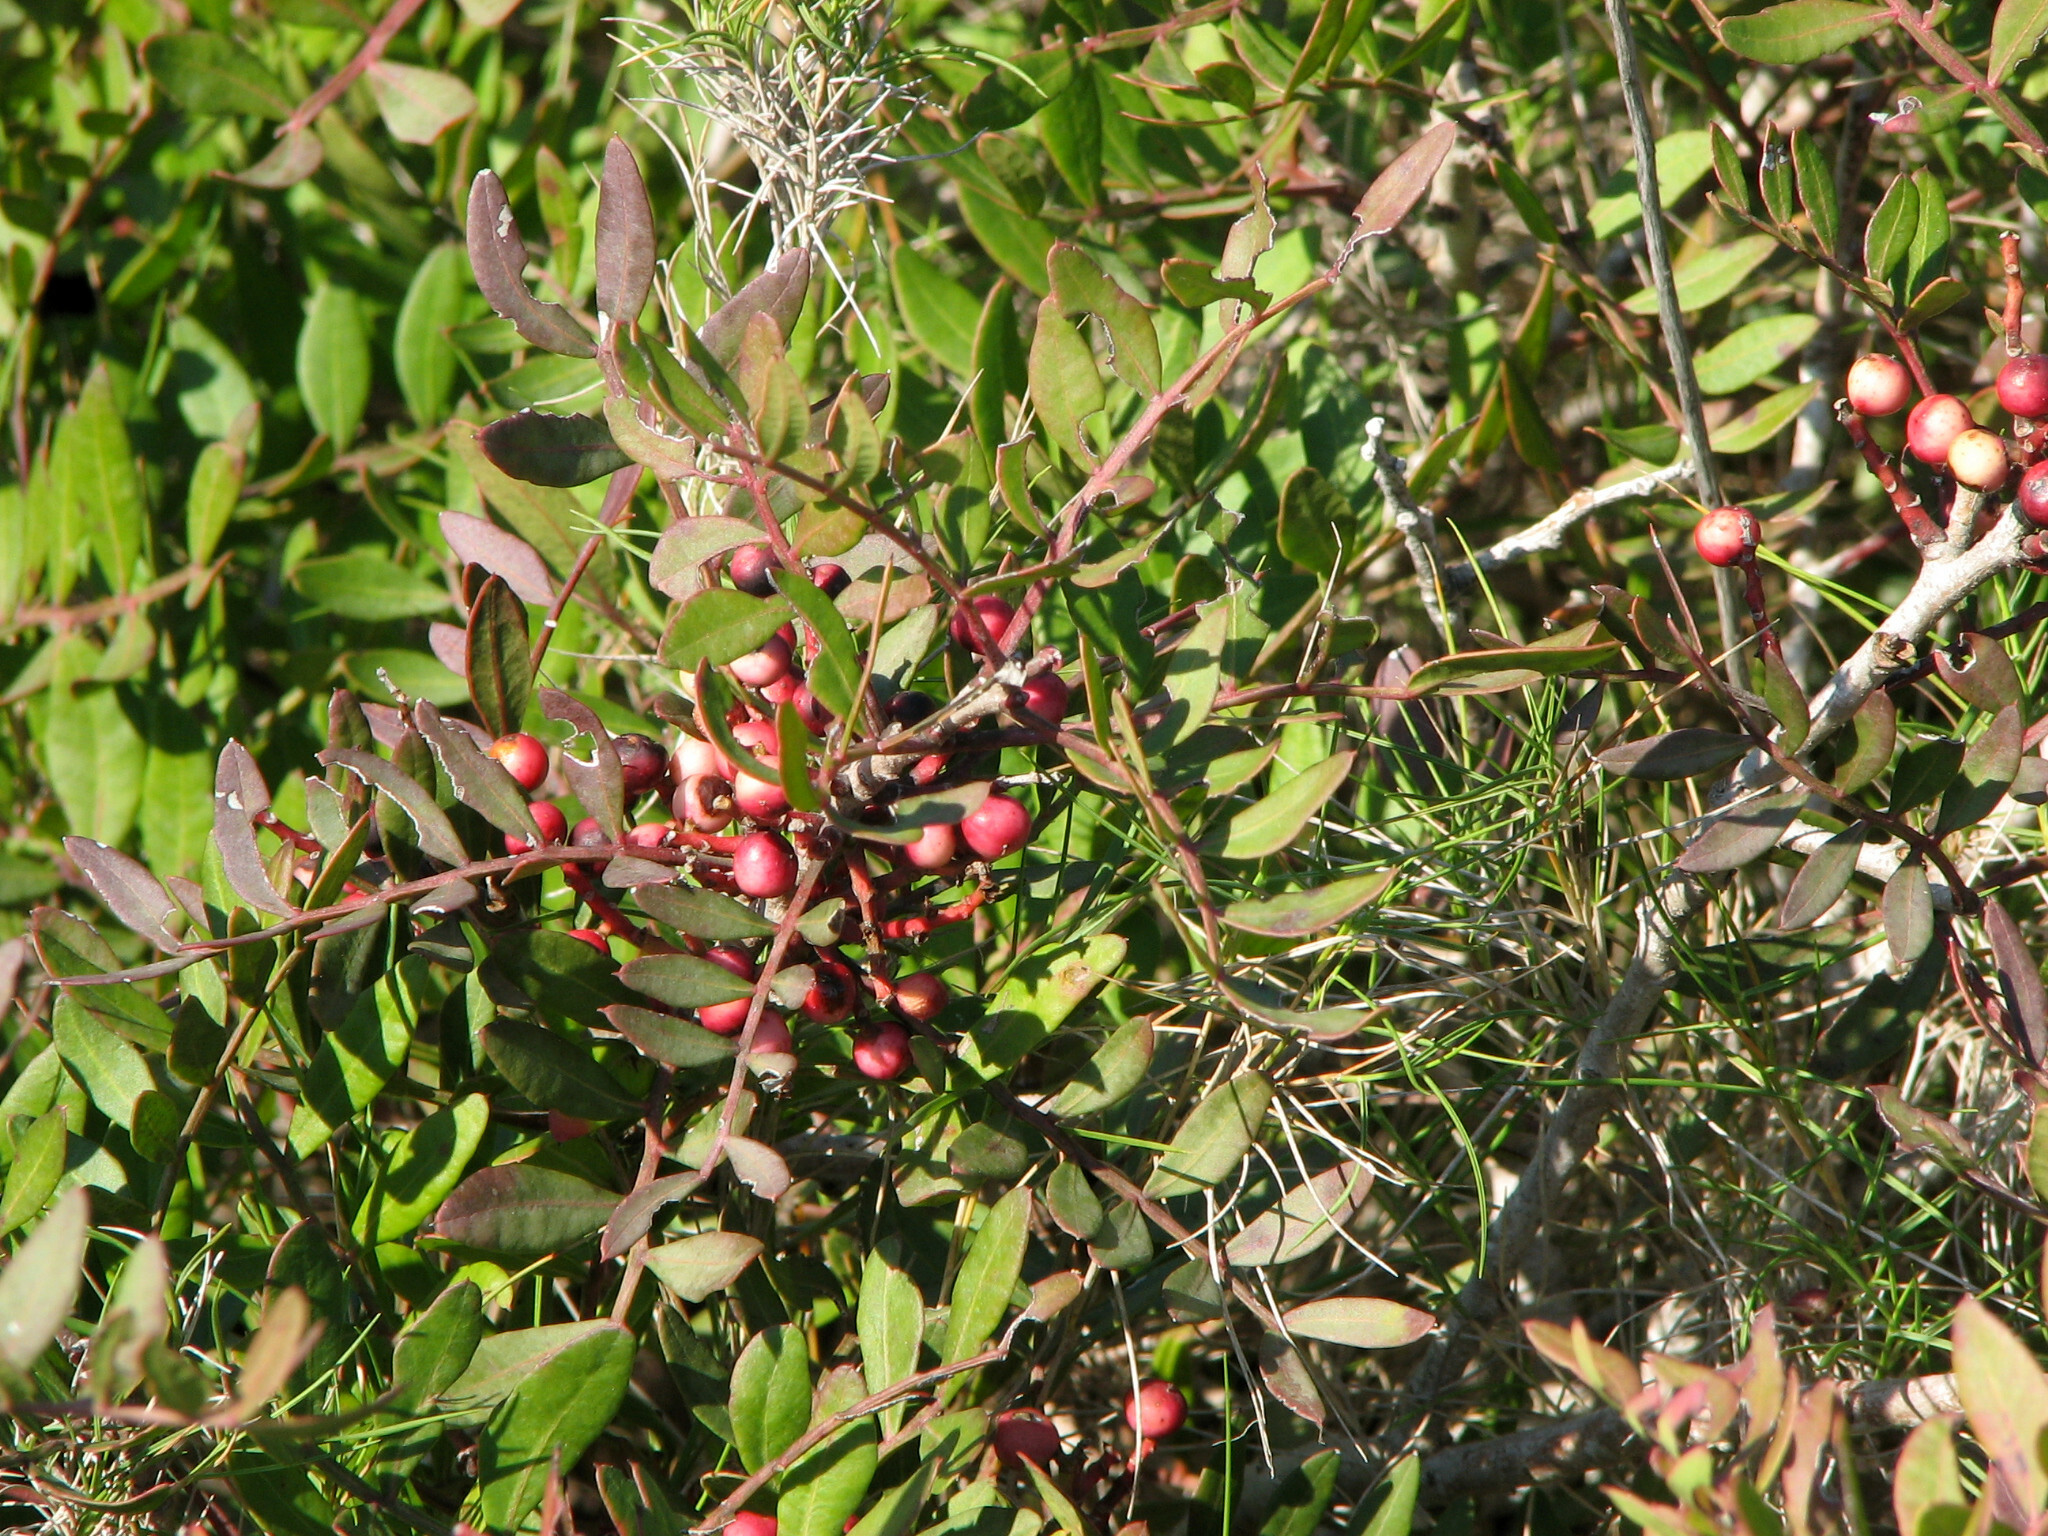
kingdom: Plantae
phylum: Tracheophyta
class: Magnoliopsida
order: Sapindales
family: Anacardiaceae
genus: Pistacia
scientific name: Pistacia lentiscus
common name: Lentisk
